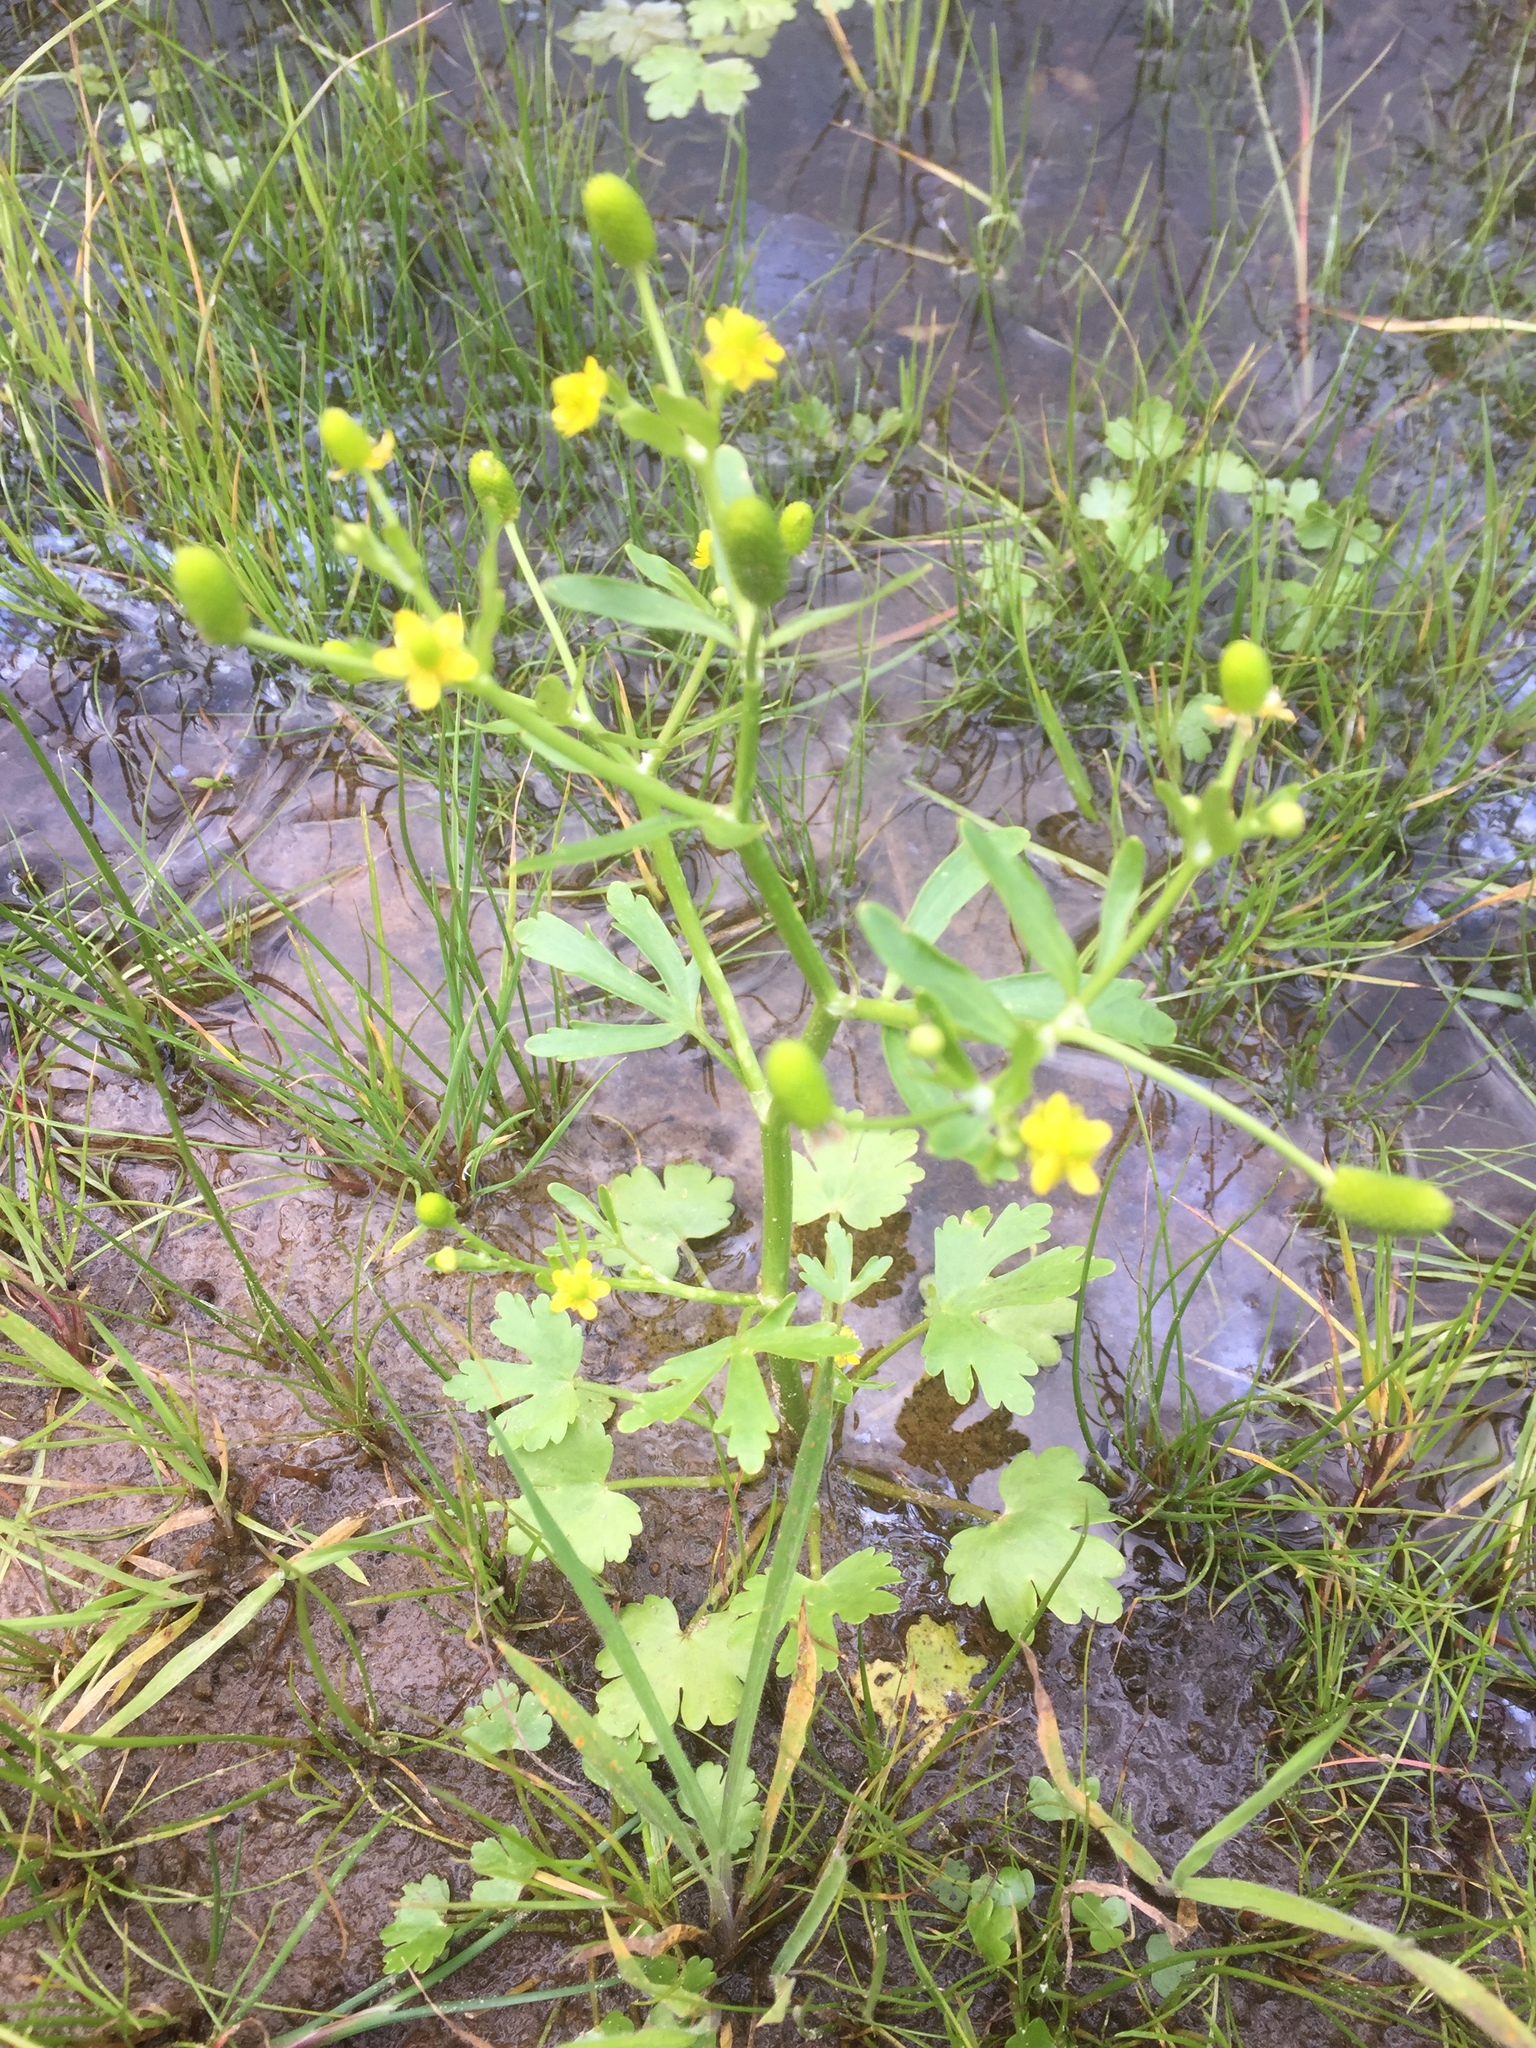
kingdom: Plantae
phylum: Tracheophyta
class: Magnoliopsida
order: Ranunculales
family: Ranunculaceae
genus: Ranunculus
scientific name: Ranunculus sceleratus
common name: Celery-leaved buttercup
